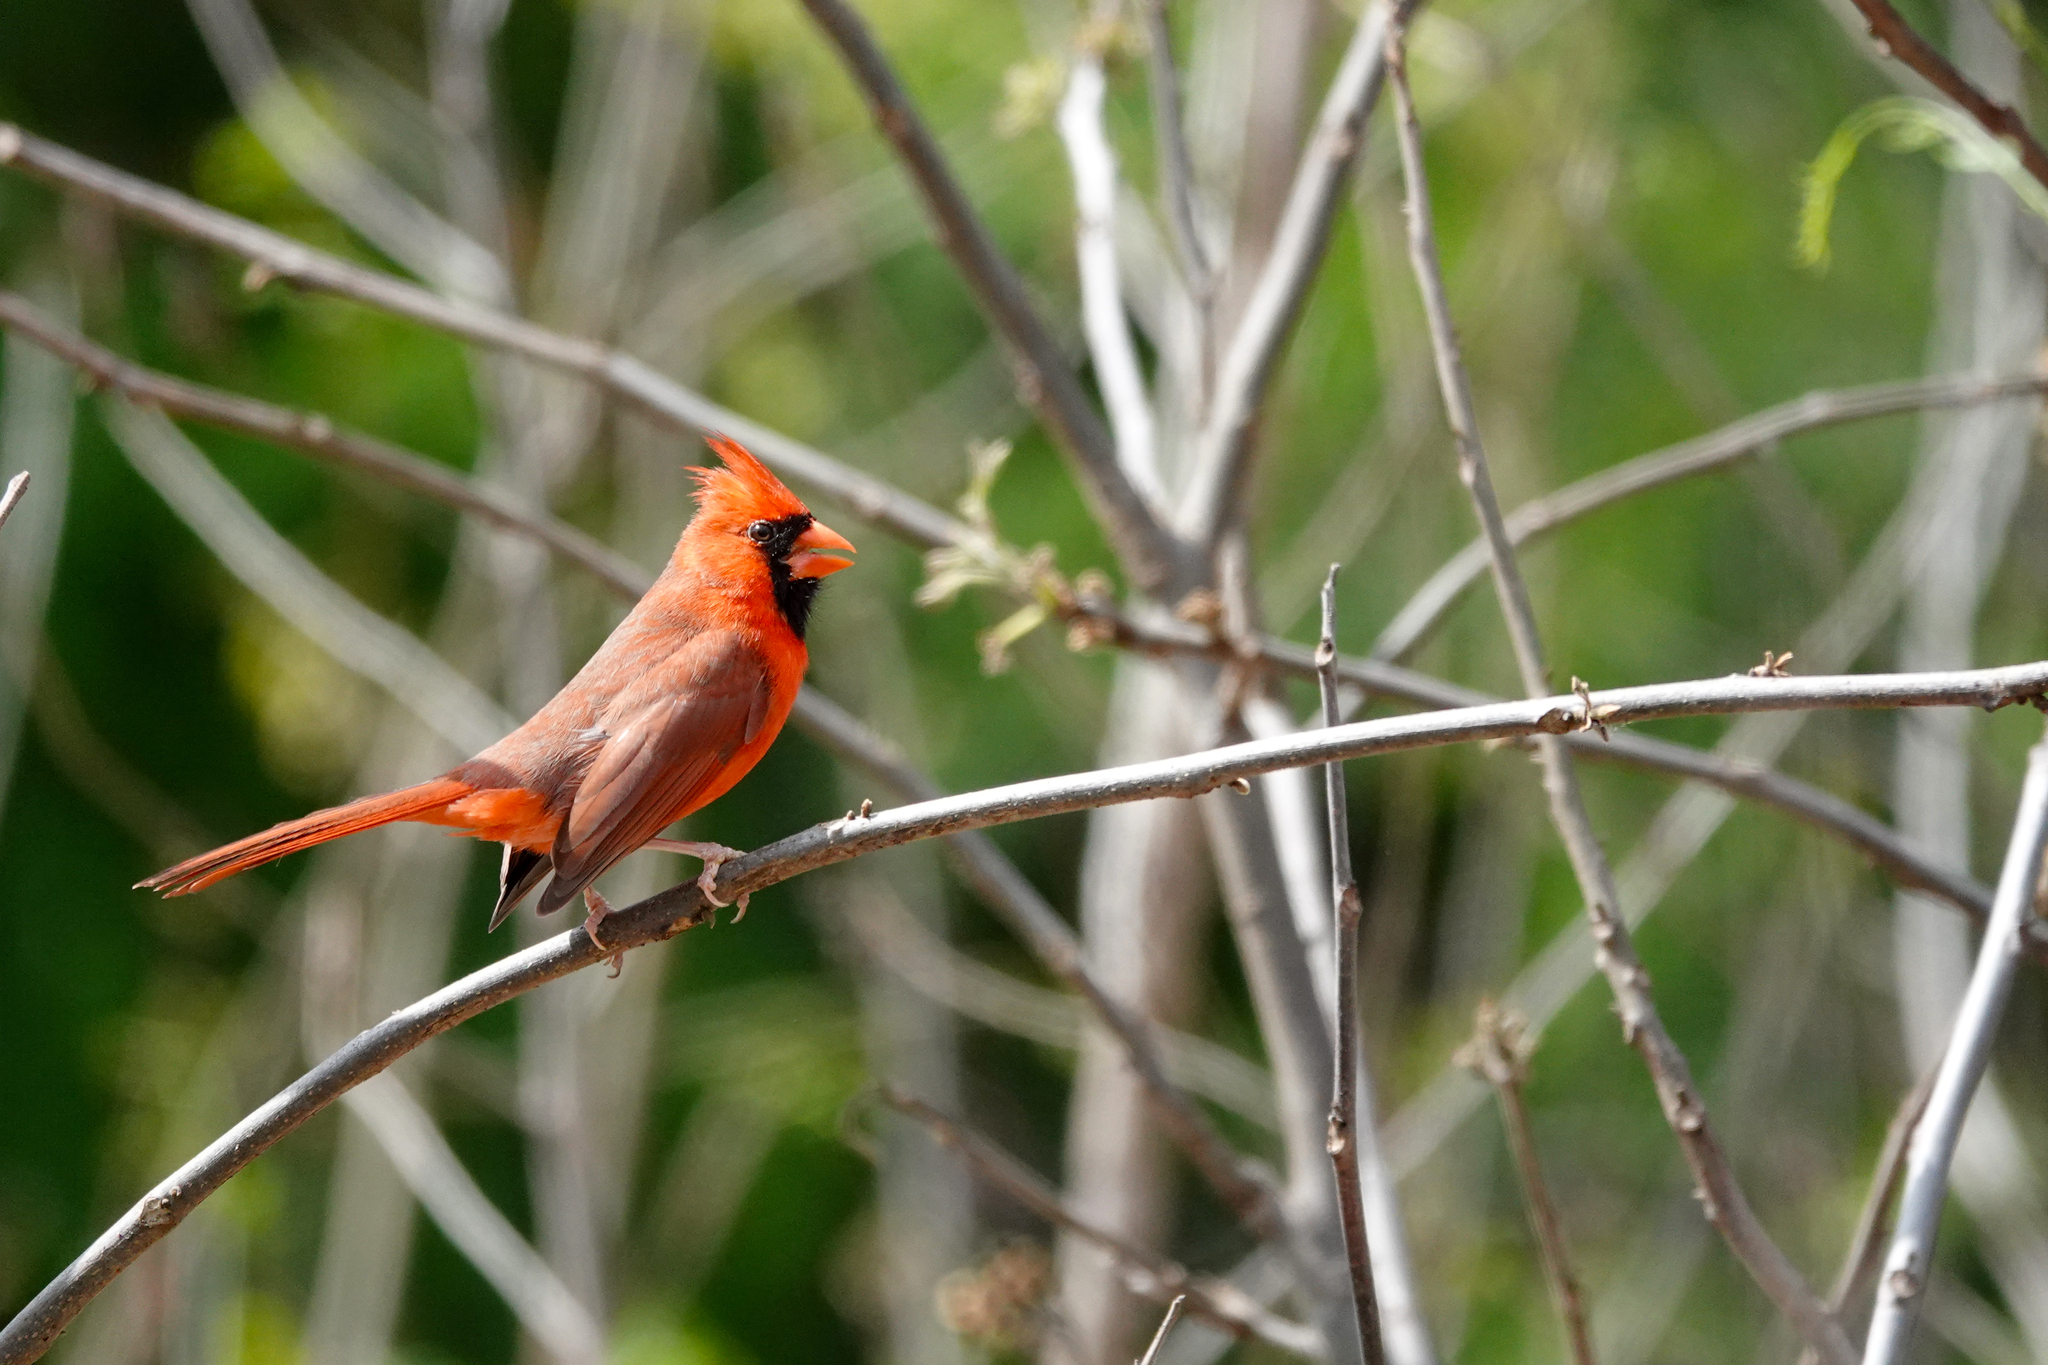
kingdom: Animalia
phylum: Chordata
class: Aves
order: Passeriformes
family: Cardinalidae
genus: Cardinalis
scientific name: Cardinalis cardinalis
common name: Northern cardinal
